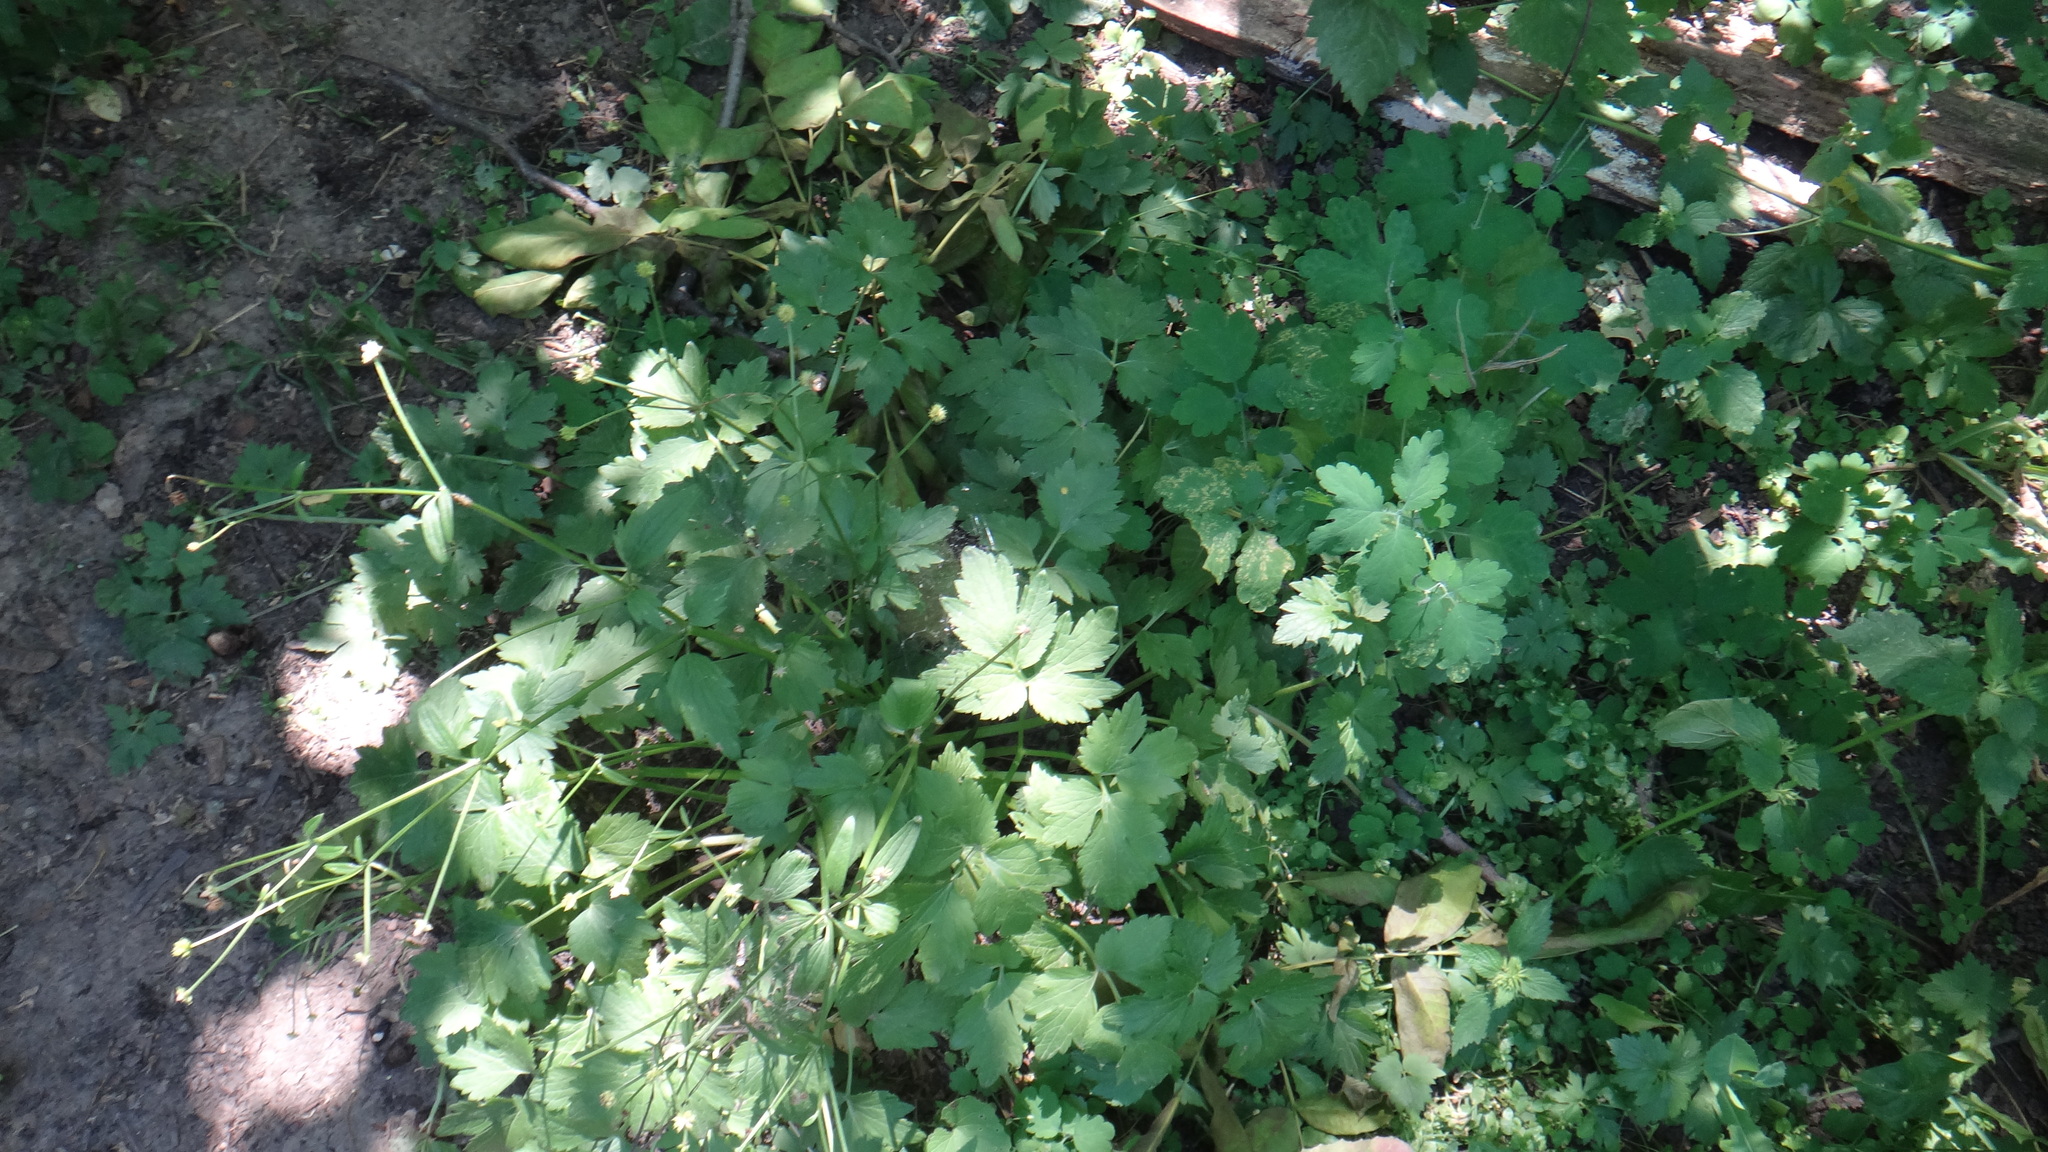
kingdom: Plantae
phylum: Tracheophyta
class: Magnoliopsida
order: Ranunculales
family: Ranunculaceae
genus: Ranunculus
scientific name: Ranunculus repens
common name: Creeping buttercup
